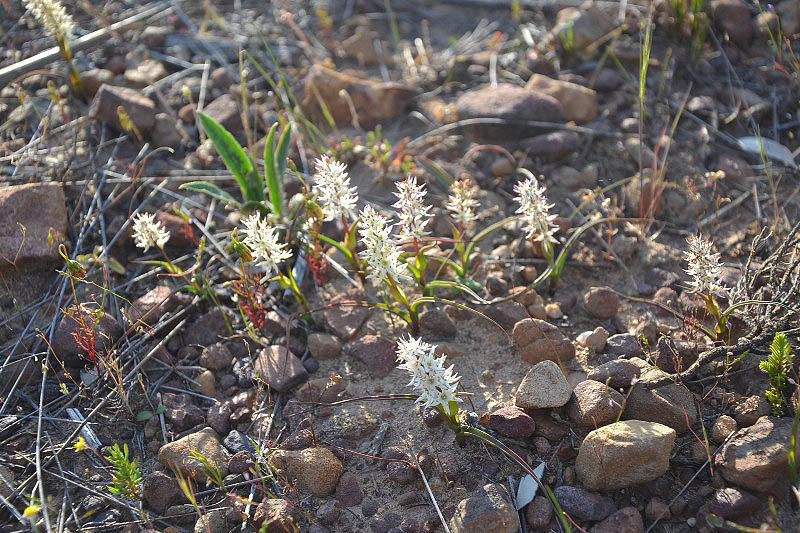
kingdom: Plantae
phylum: Tracheophyta
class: Liliopsida
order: Liliales
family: Colchicaceae
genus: Wurmbea
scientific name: Wurmbea spicata
